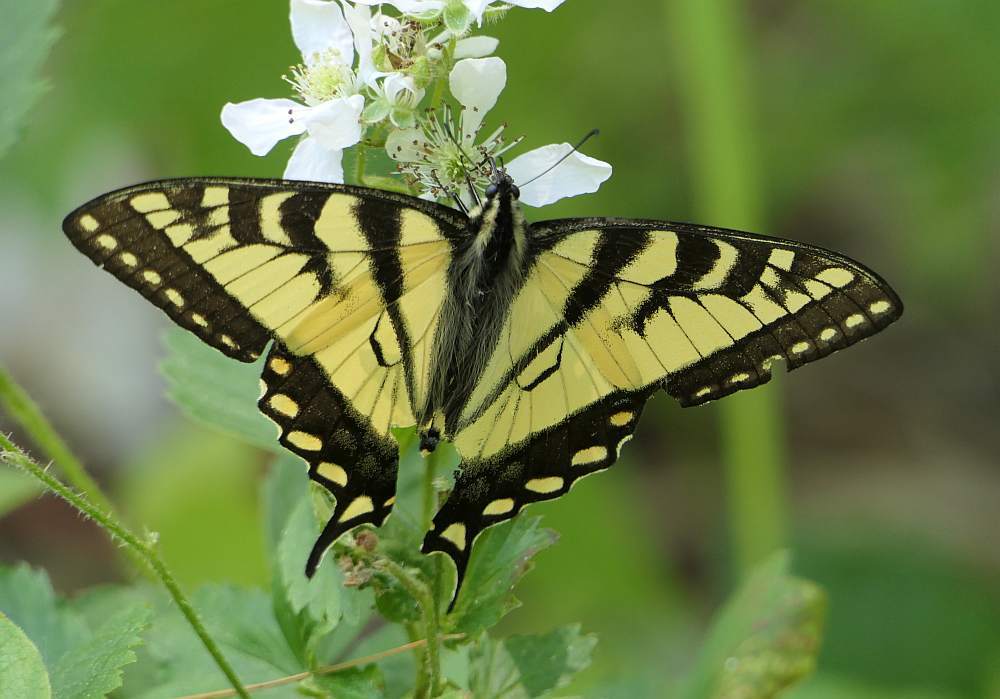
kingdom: Animalia
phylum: Arthropoda
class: Insecta
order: Lepidoptera
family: Papilionidae
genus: Papilio
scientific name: Papilio canadensis
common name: Canadian tiger swallowtail
